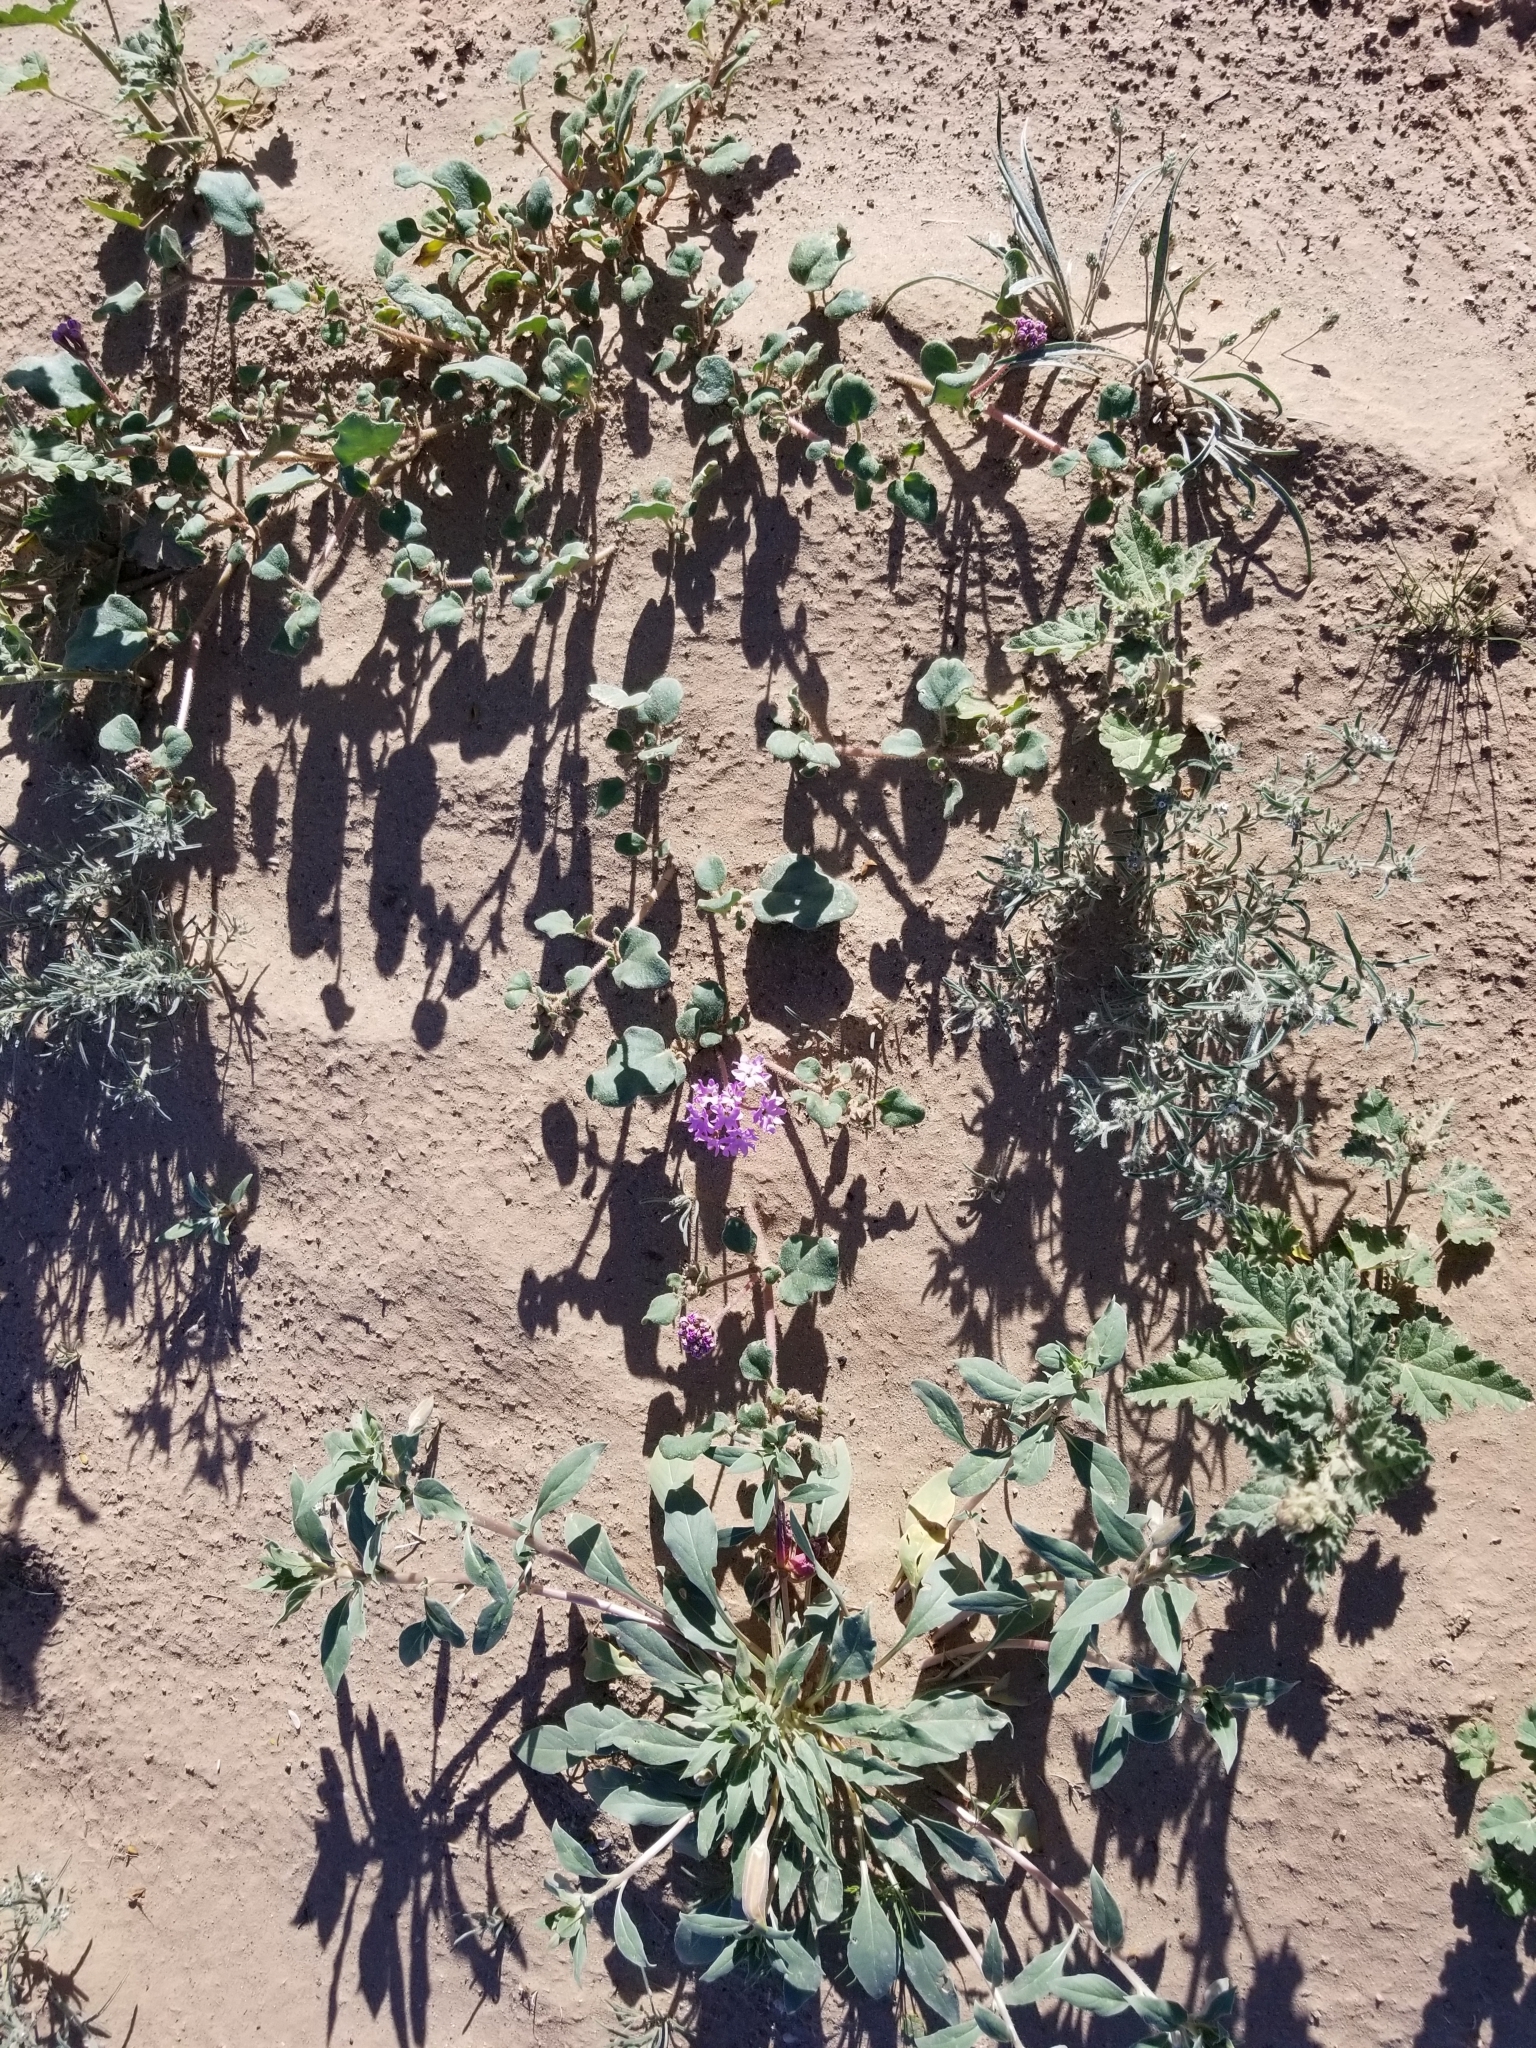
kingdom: Plantae
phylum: Tracheophyta
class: Magnoliopsida
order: Caryophyllales
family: Nyctaginaceae
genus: Abronia
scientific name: Abronia villosa
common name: Desert sand-verbena
